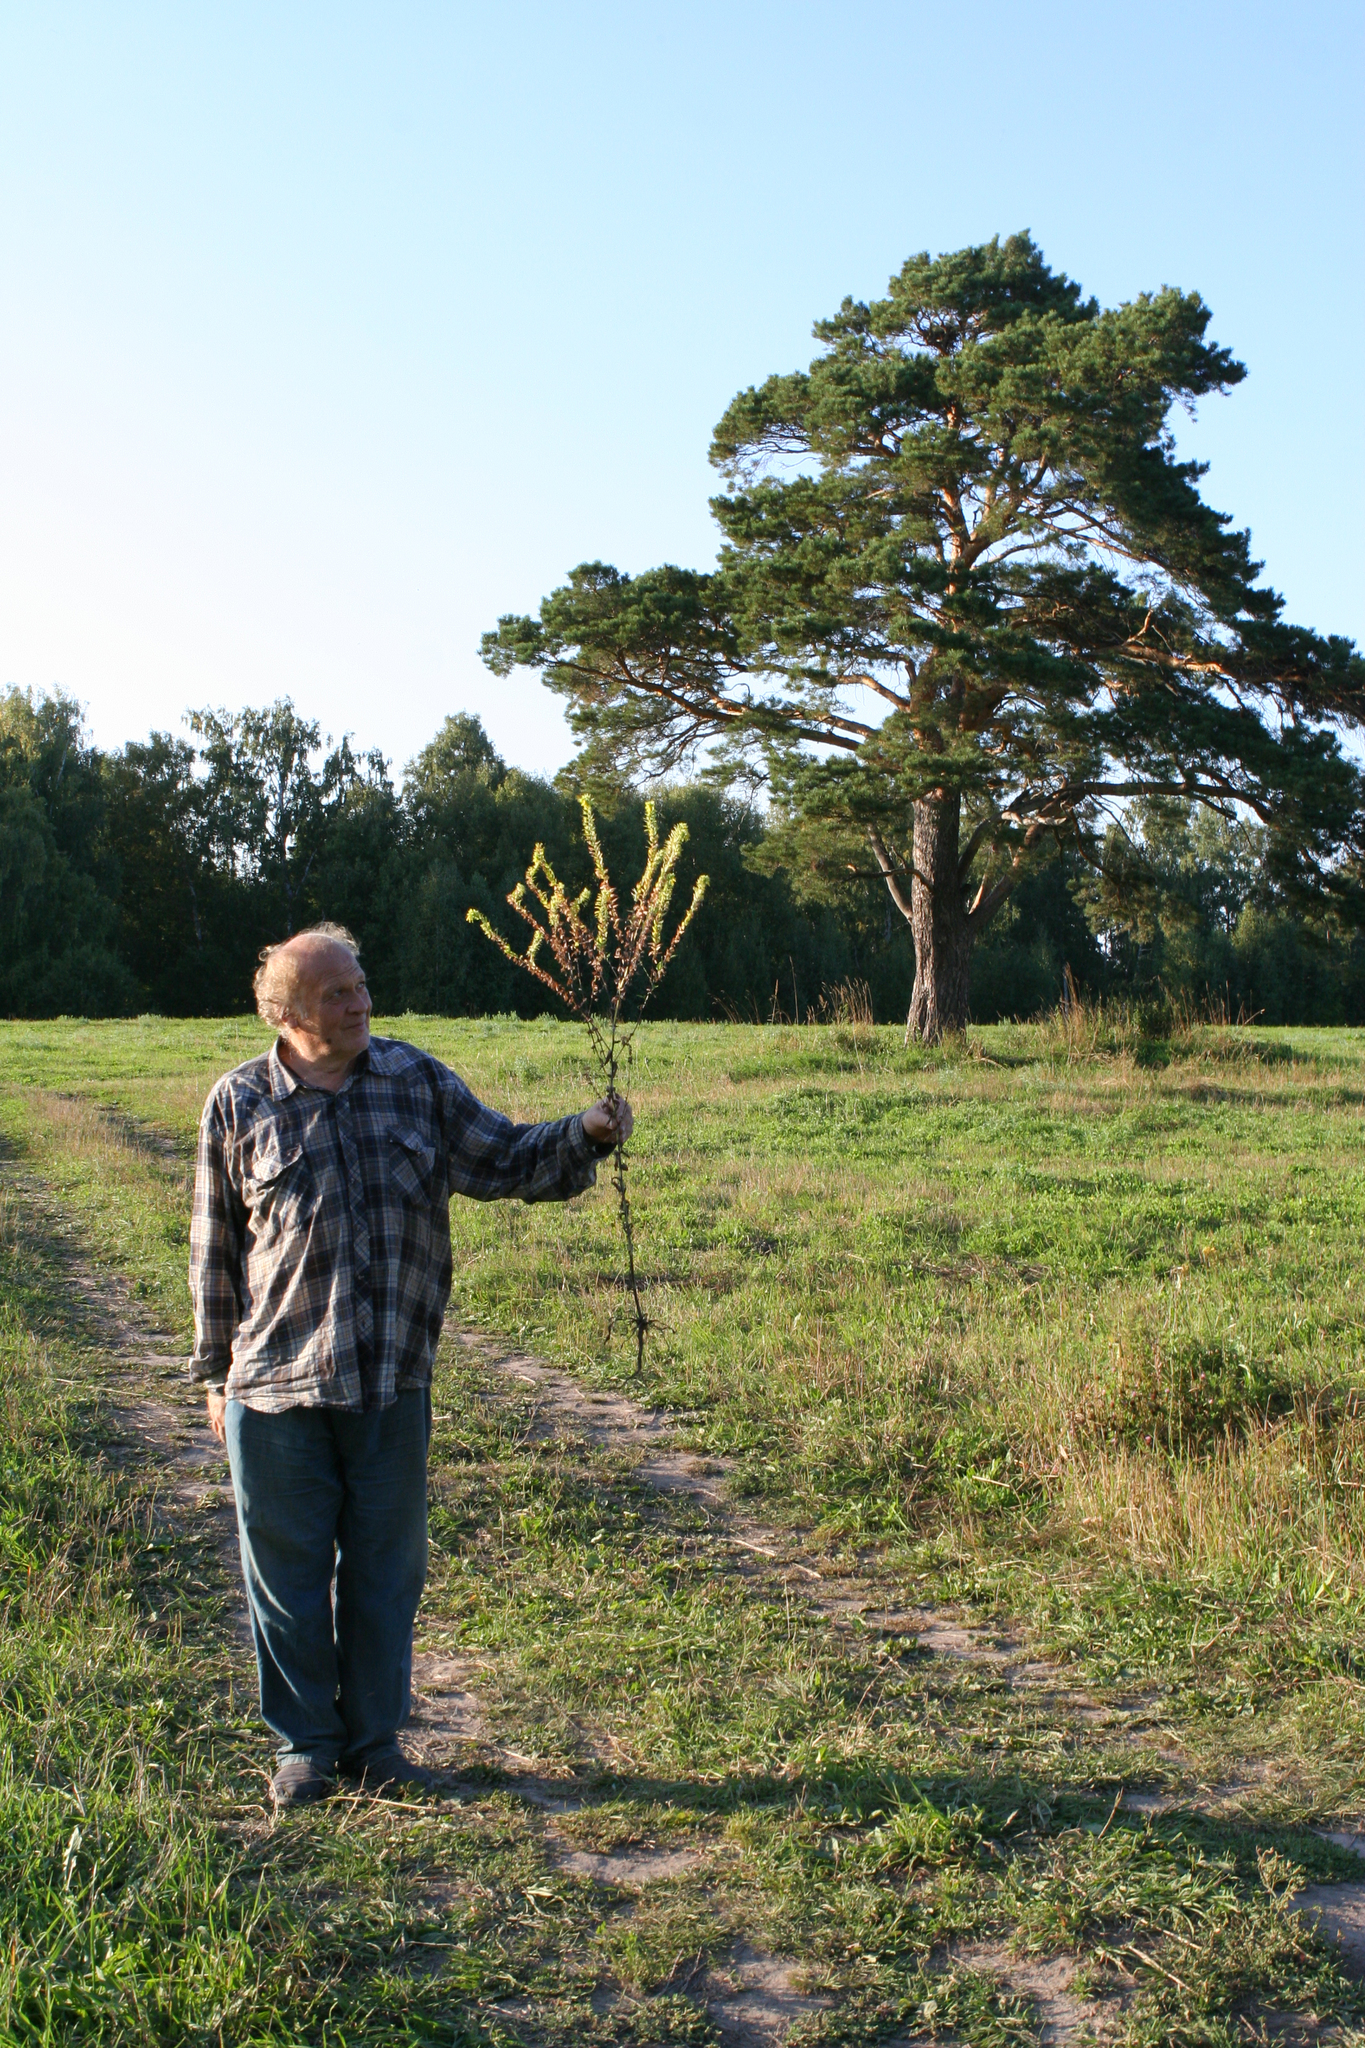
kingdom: Plantae
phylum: Tracheophyta
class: Magnoliopsida
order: Boraginales
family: Boraginaceae
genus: Cerinthe
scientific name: Cerinthe minor
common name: Lesser honeywort
